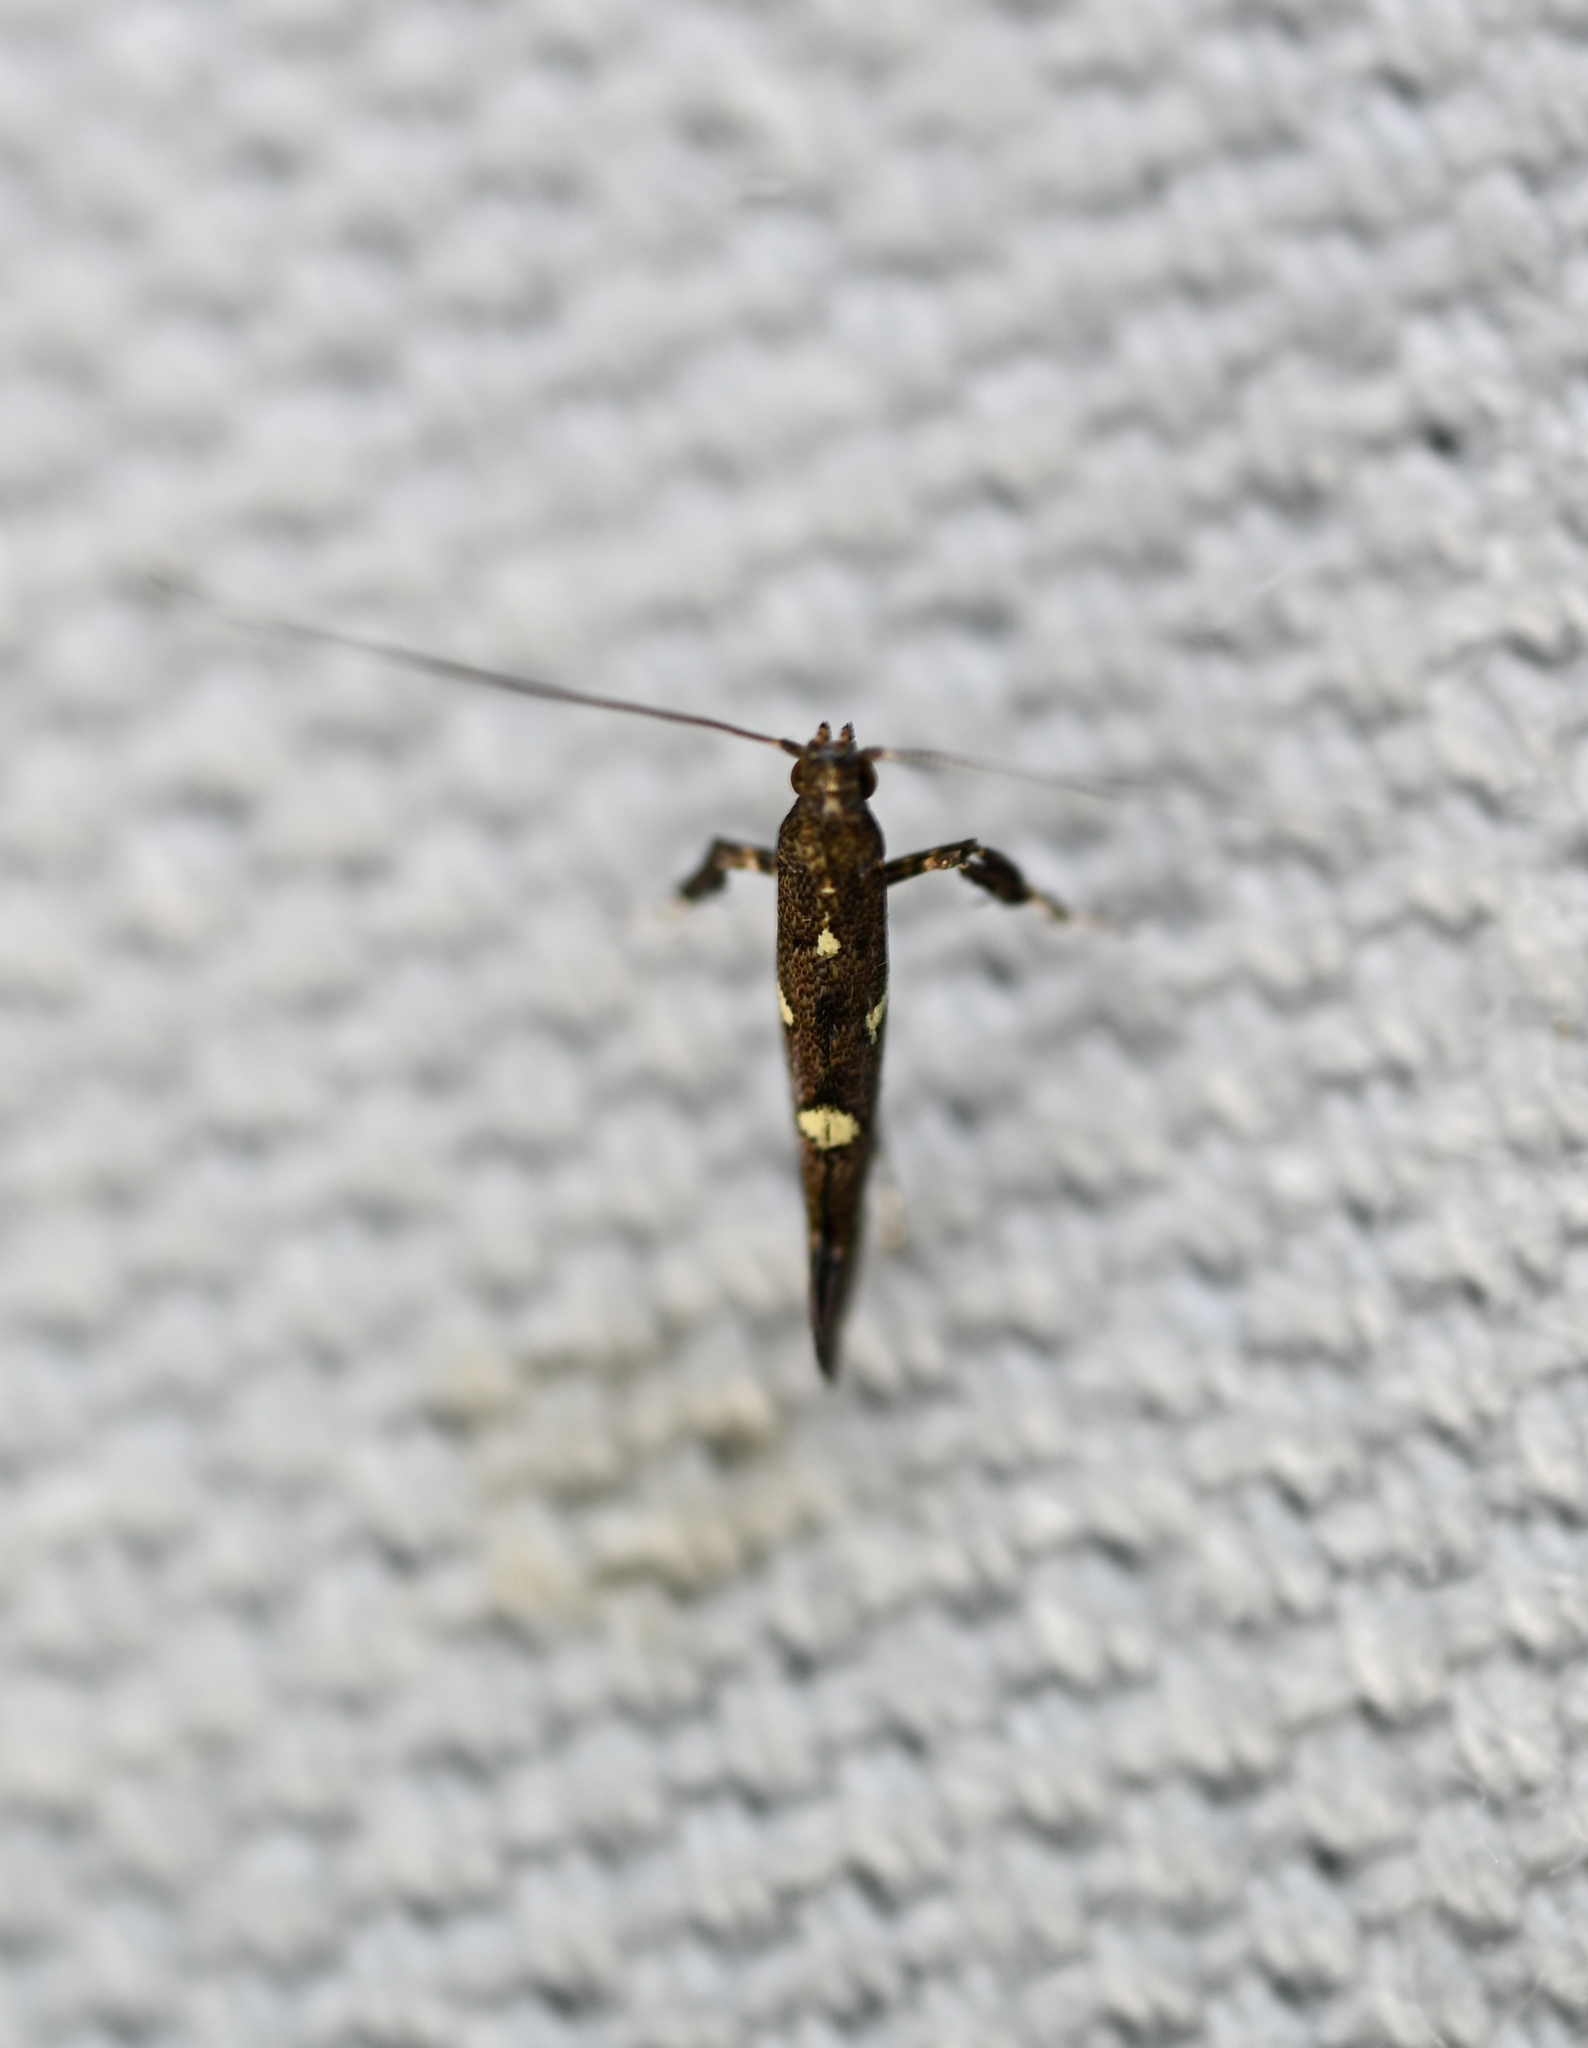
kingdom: Animalia
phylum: Arthropoda
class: Insecta
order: Lepidoptera
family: Gracillariidae
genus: Caloptilia
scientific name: Caloptilia triadicae
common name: Tallow leaf roller
